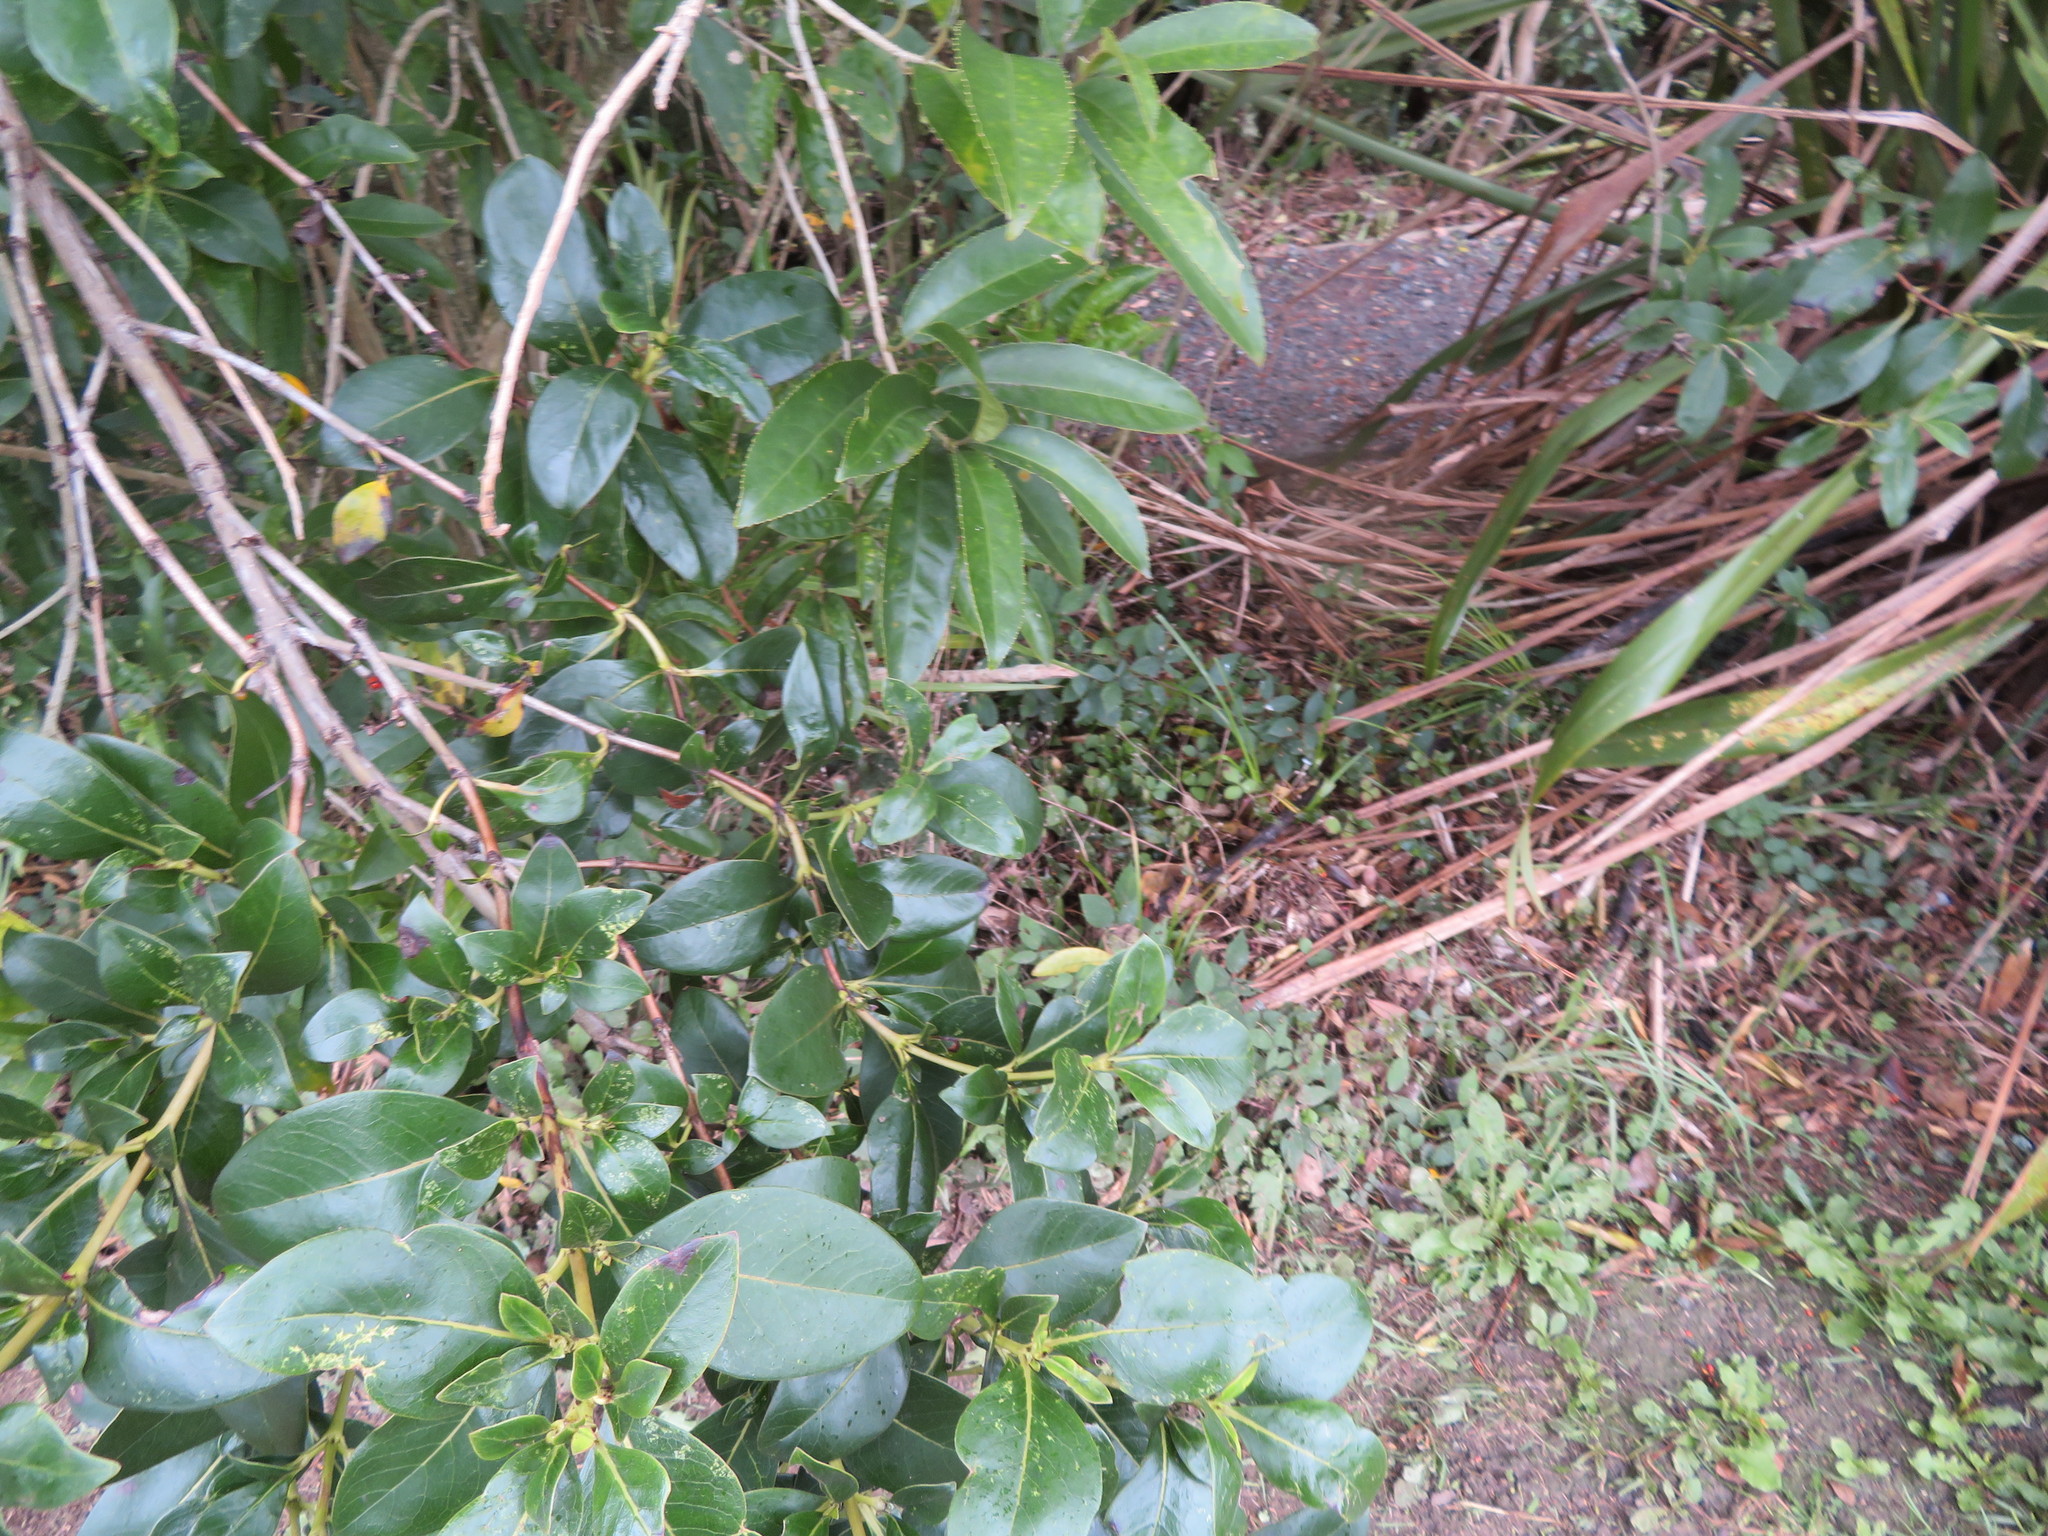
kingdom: Plantae
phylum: Tracheophyta
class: Magnoliopsida
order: Gentianales
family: Rubiaceae
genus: Coprosma
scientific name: Coprosma robusta
